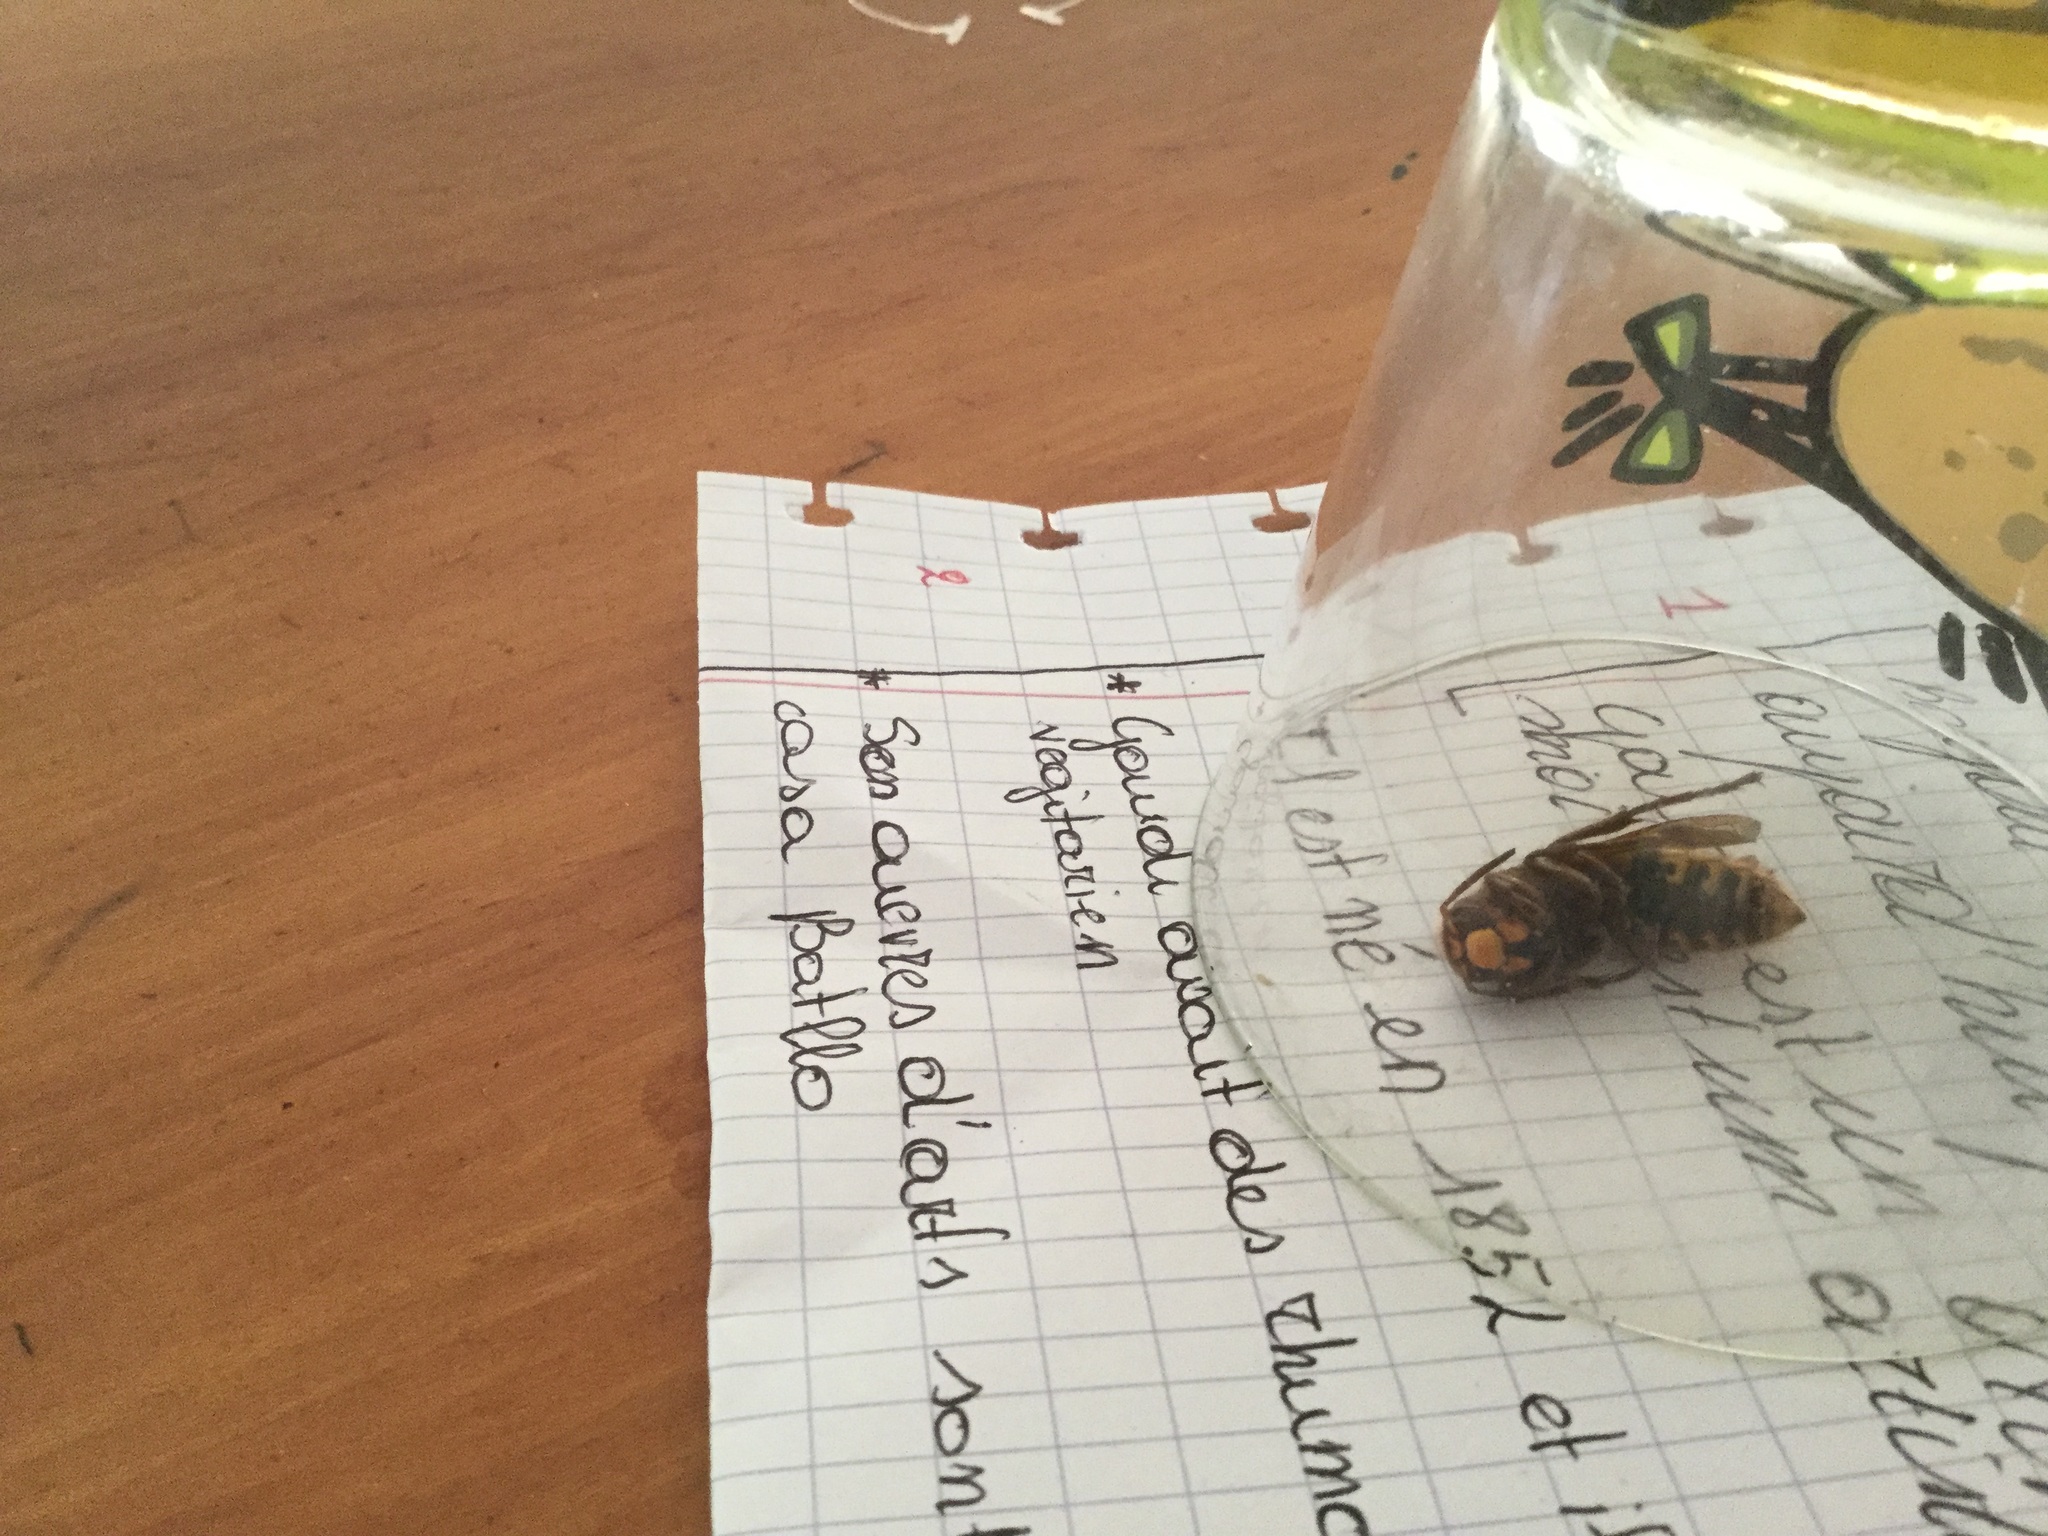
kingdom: Animalia
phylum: Arthropoda
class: Insecta
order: Hymenoptera
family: Vespidae
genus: Vespa
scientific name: Vespa crabro
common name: Hornet
